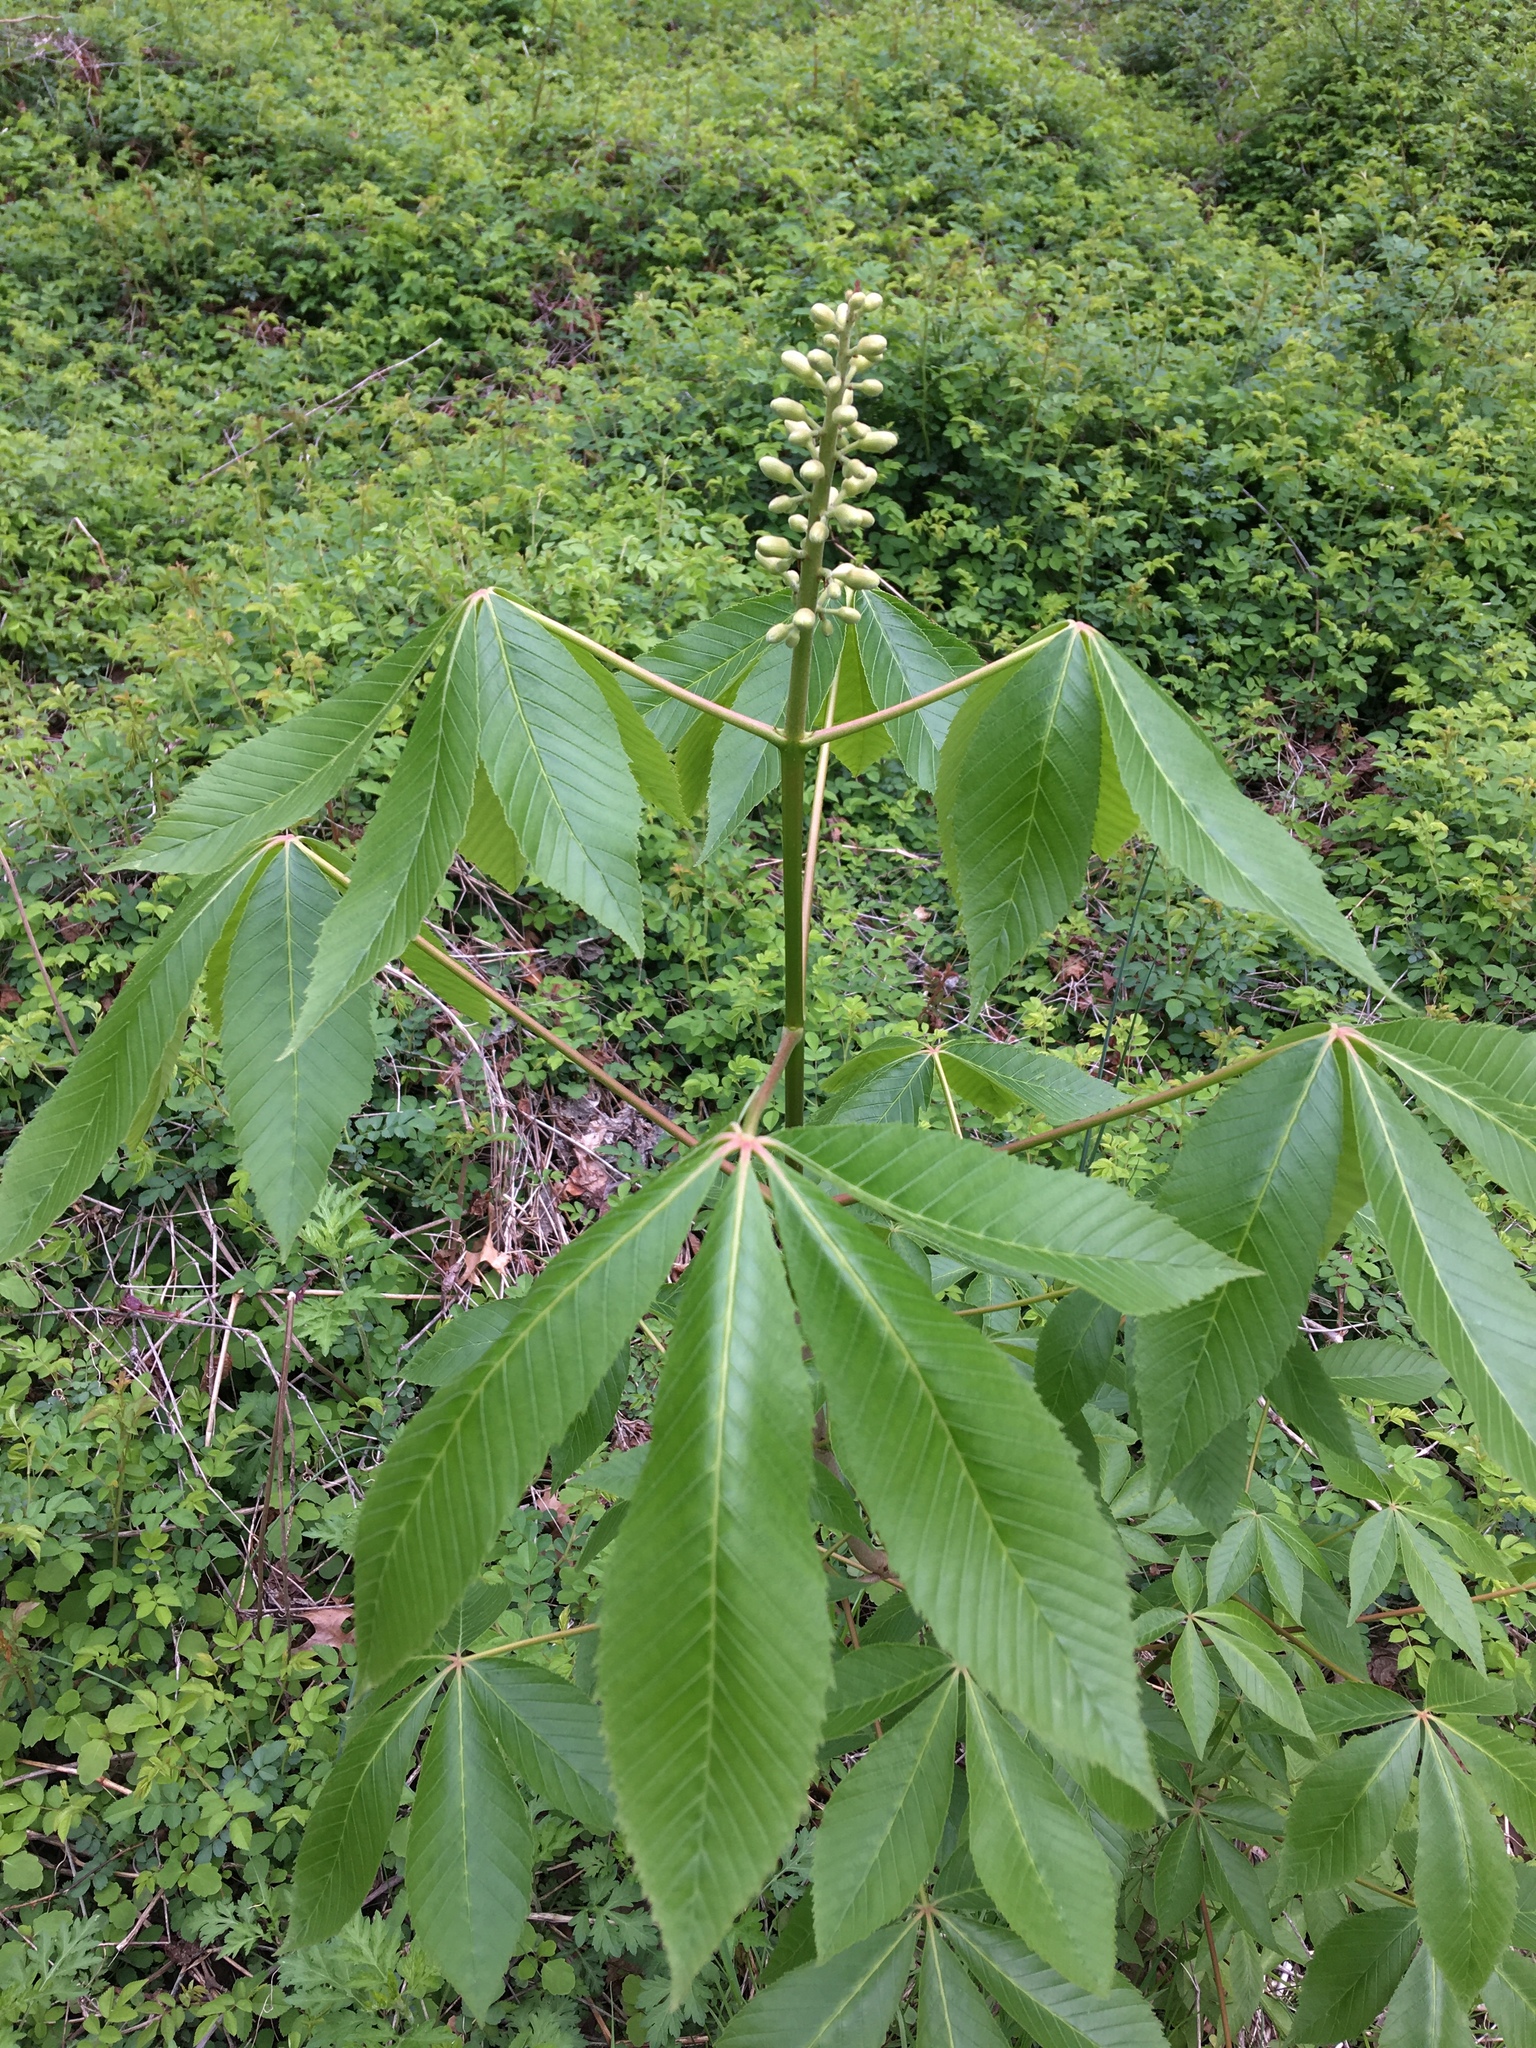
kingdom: Plantae
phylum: Tracheophyta
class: Magnoliopsida
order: Sapindales
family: Sapindaceae
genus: Aesculus
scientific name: Aesculus glabra
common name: Ohio buckeye
